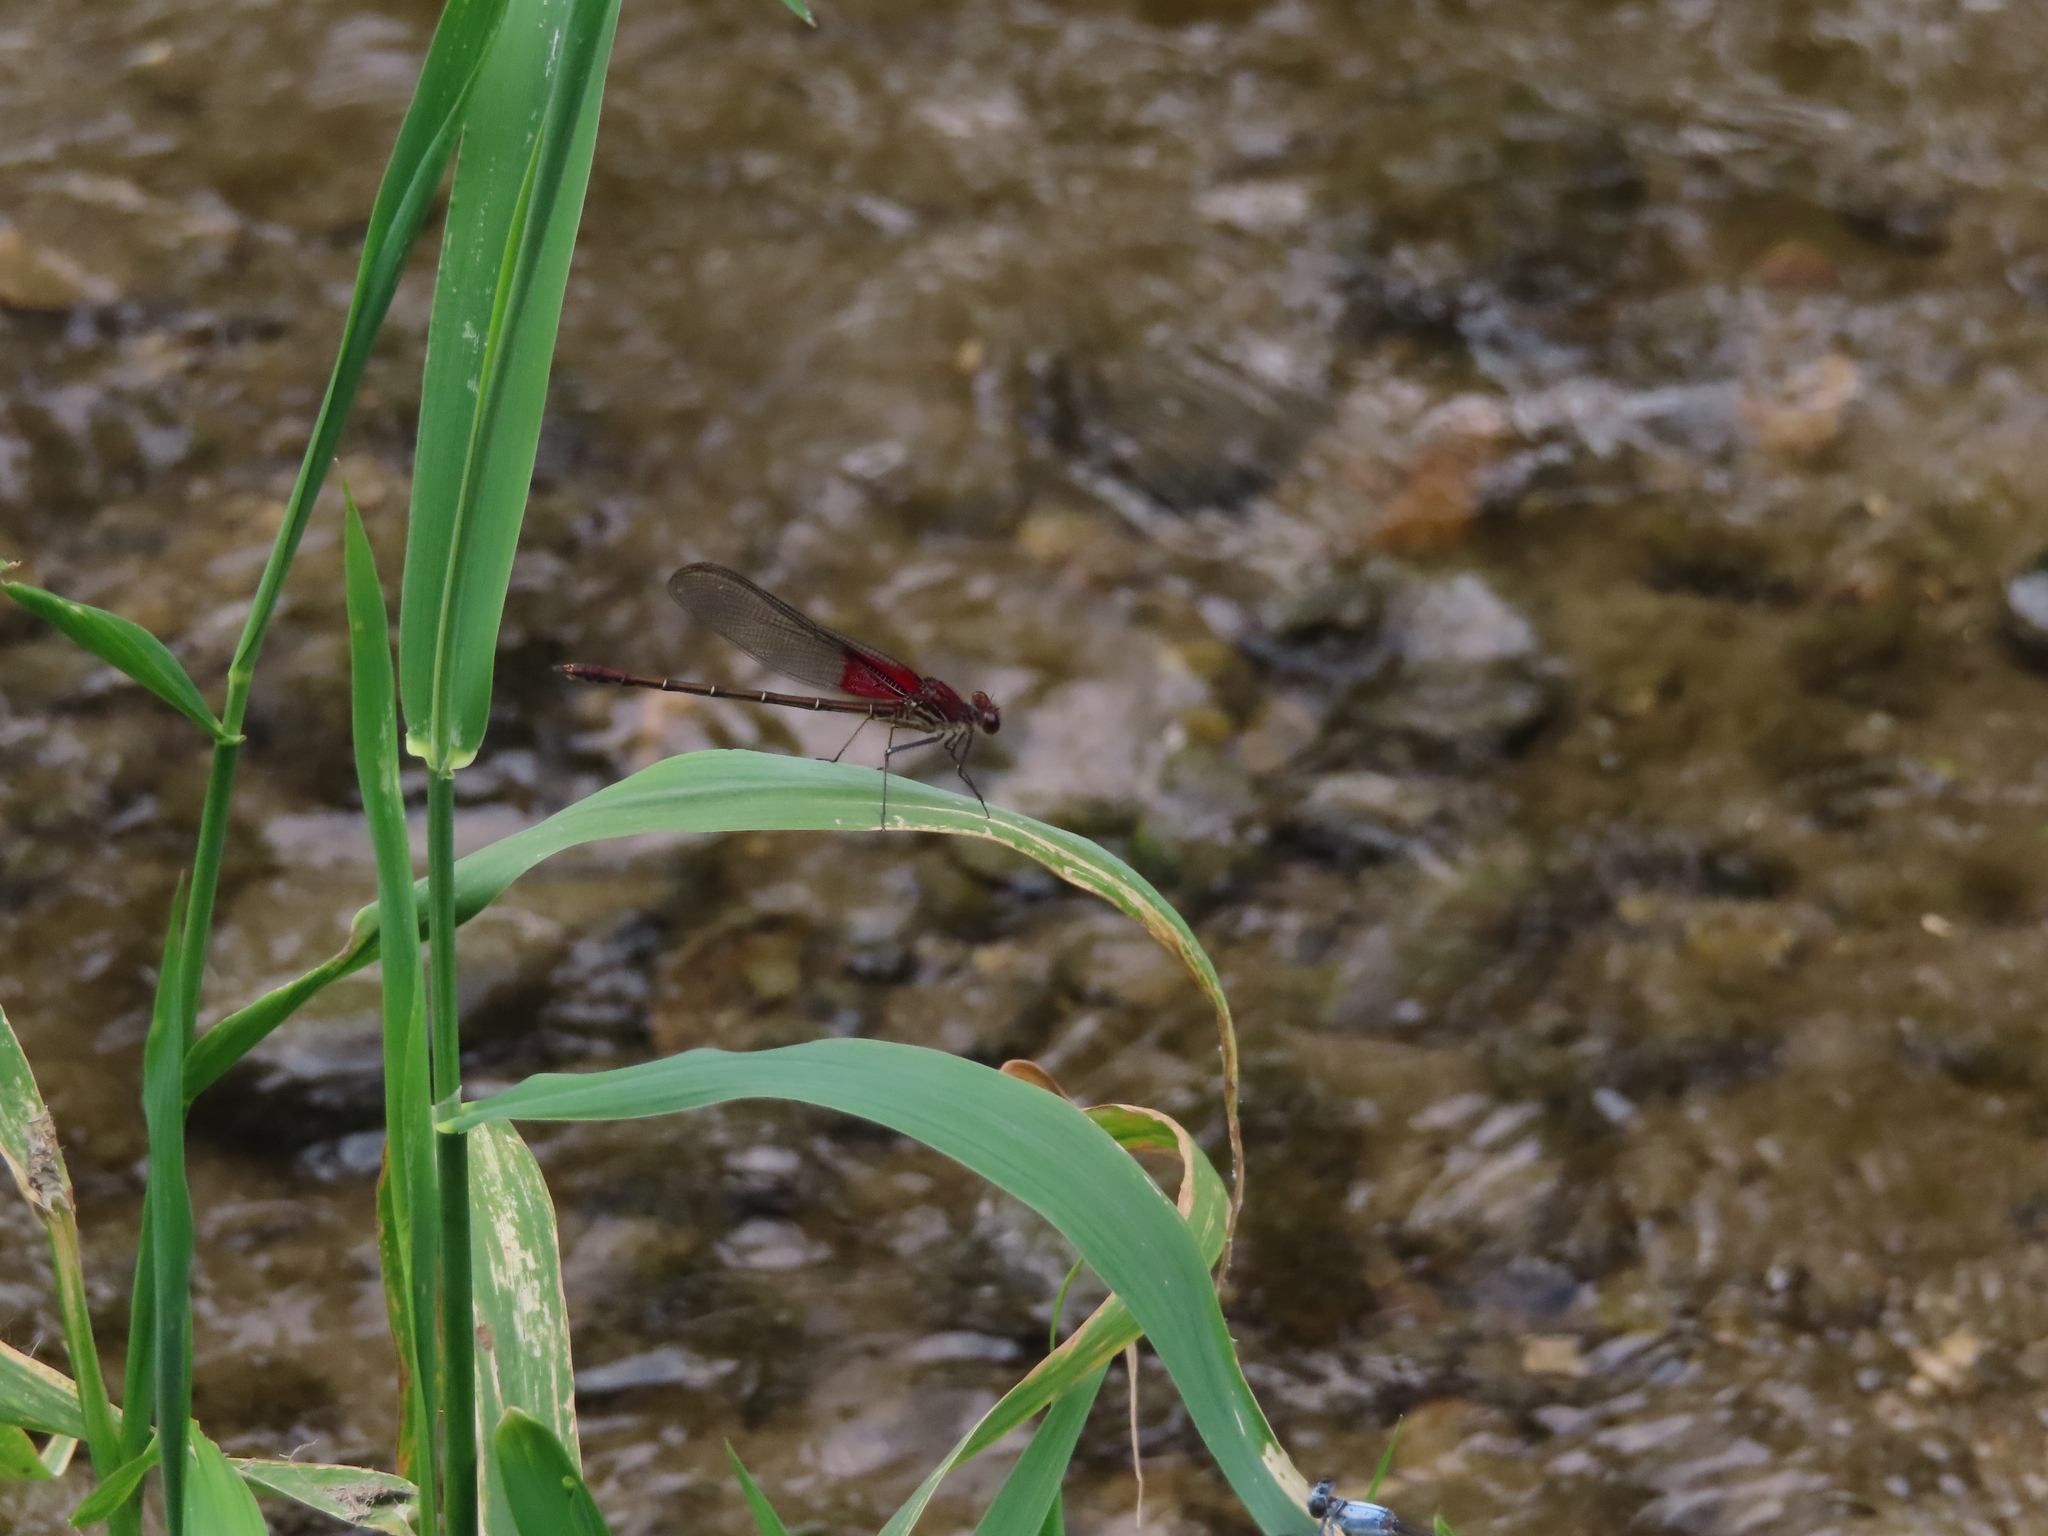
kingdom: Animalia
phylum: Arthropoda
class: Insecta
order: Odonata
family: Calopterygidae
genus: Hetaerina
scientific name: Hetaerina americana
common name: American rubyspot
